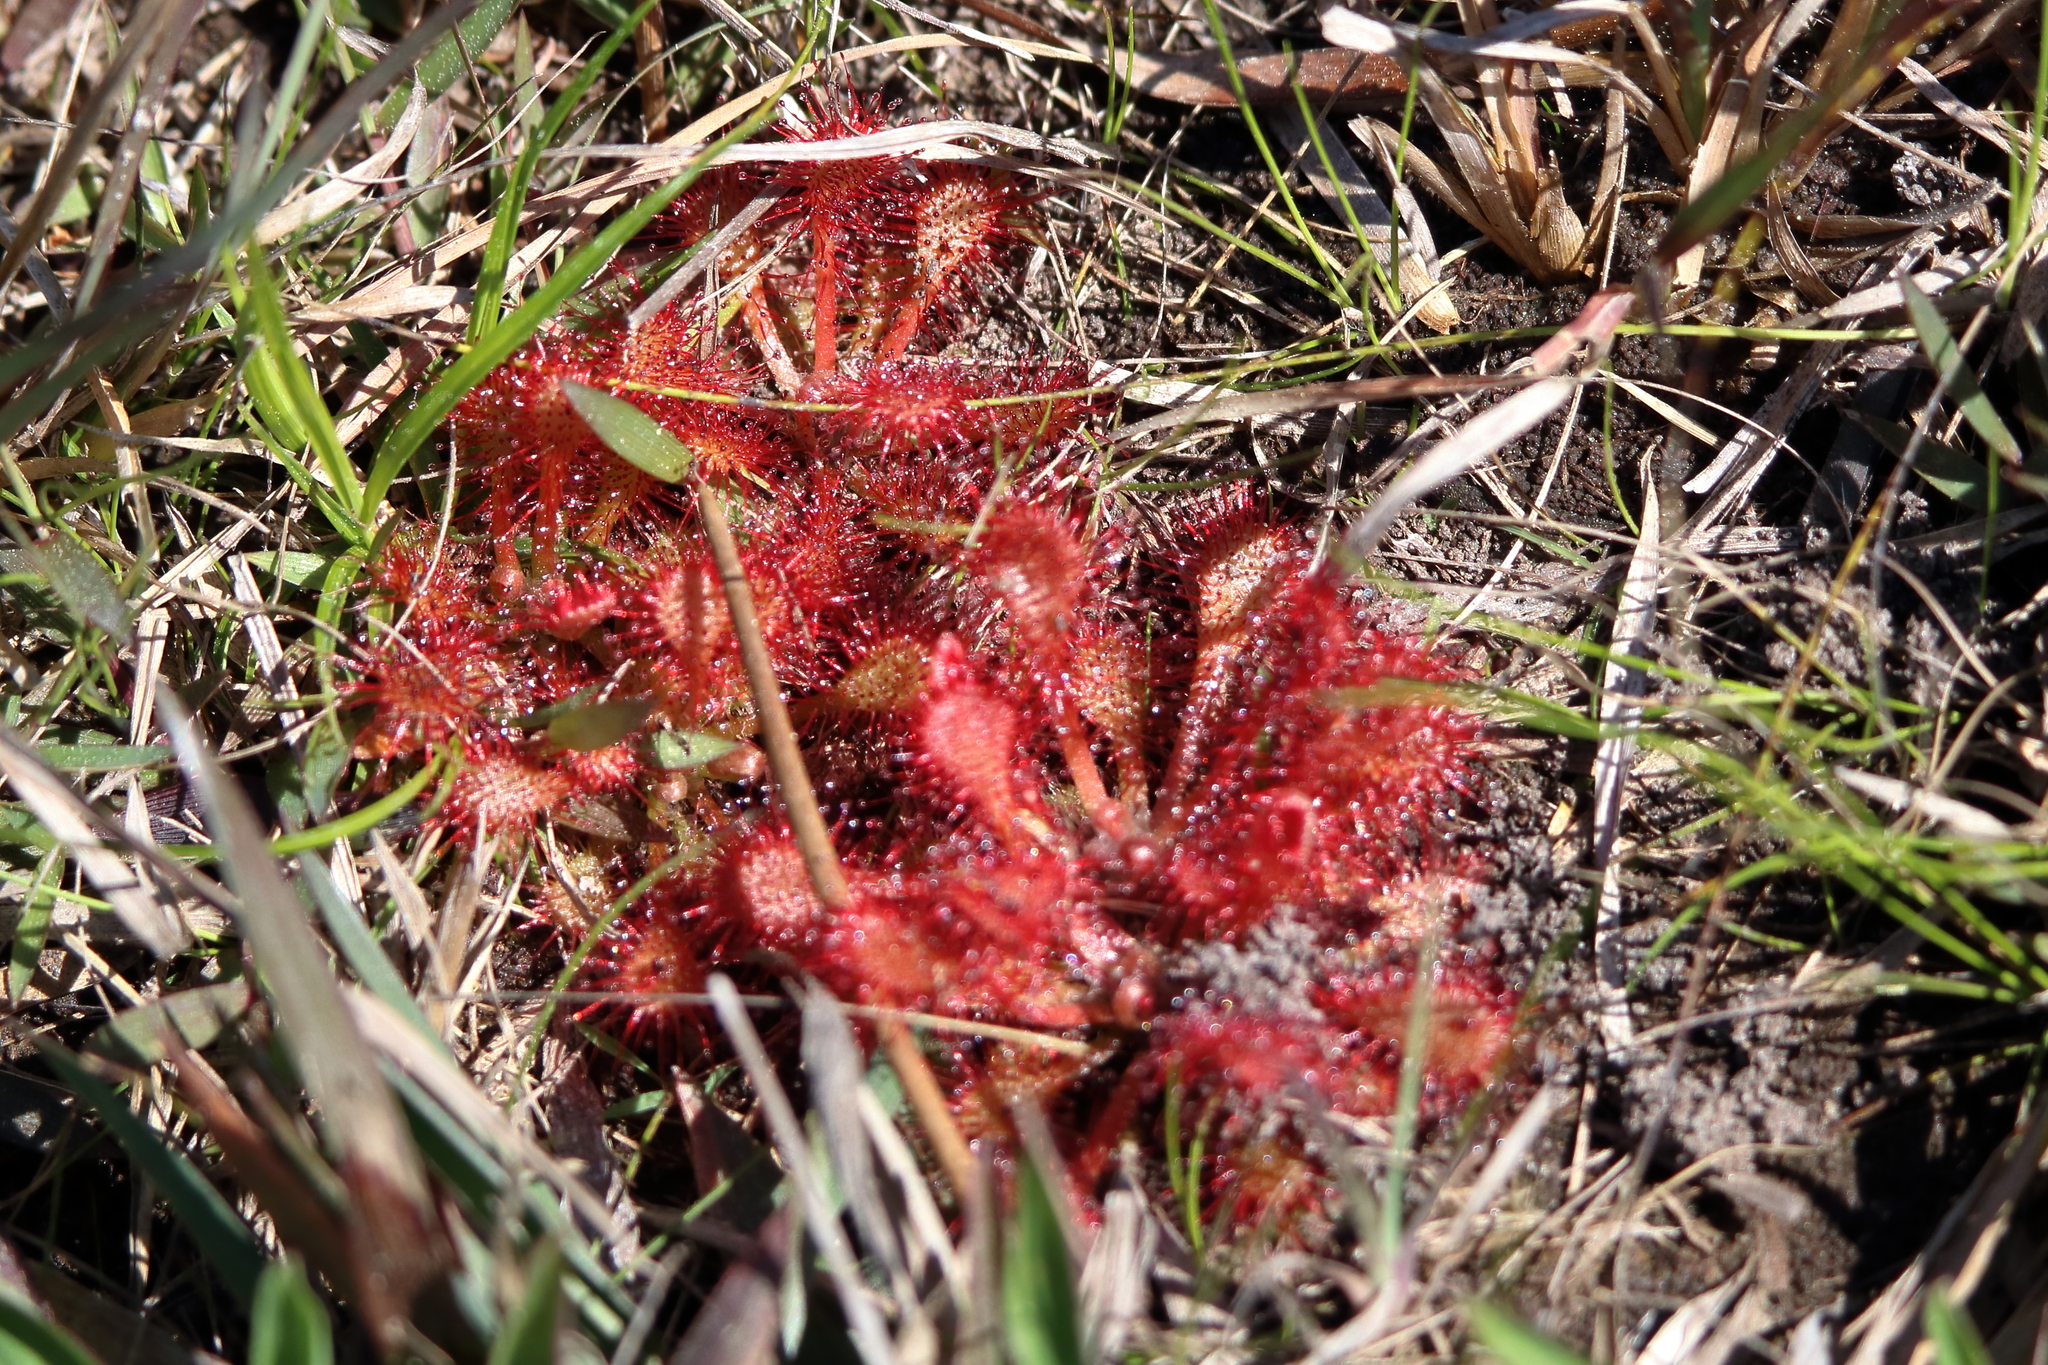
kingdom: Plantae
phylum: Tracheophyta
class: Magnoliopsida
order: Caryophyllales
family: Droseraceae
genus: Drosera
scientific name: Drosera capillaris
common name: Pink sundew
